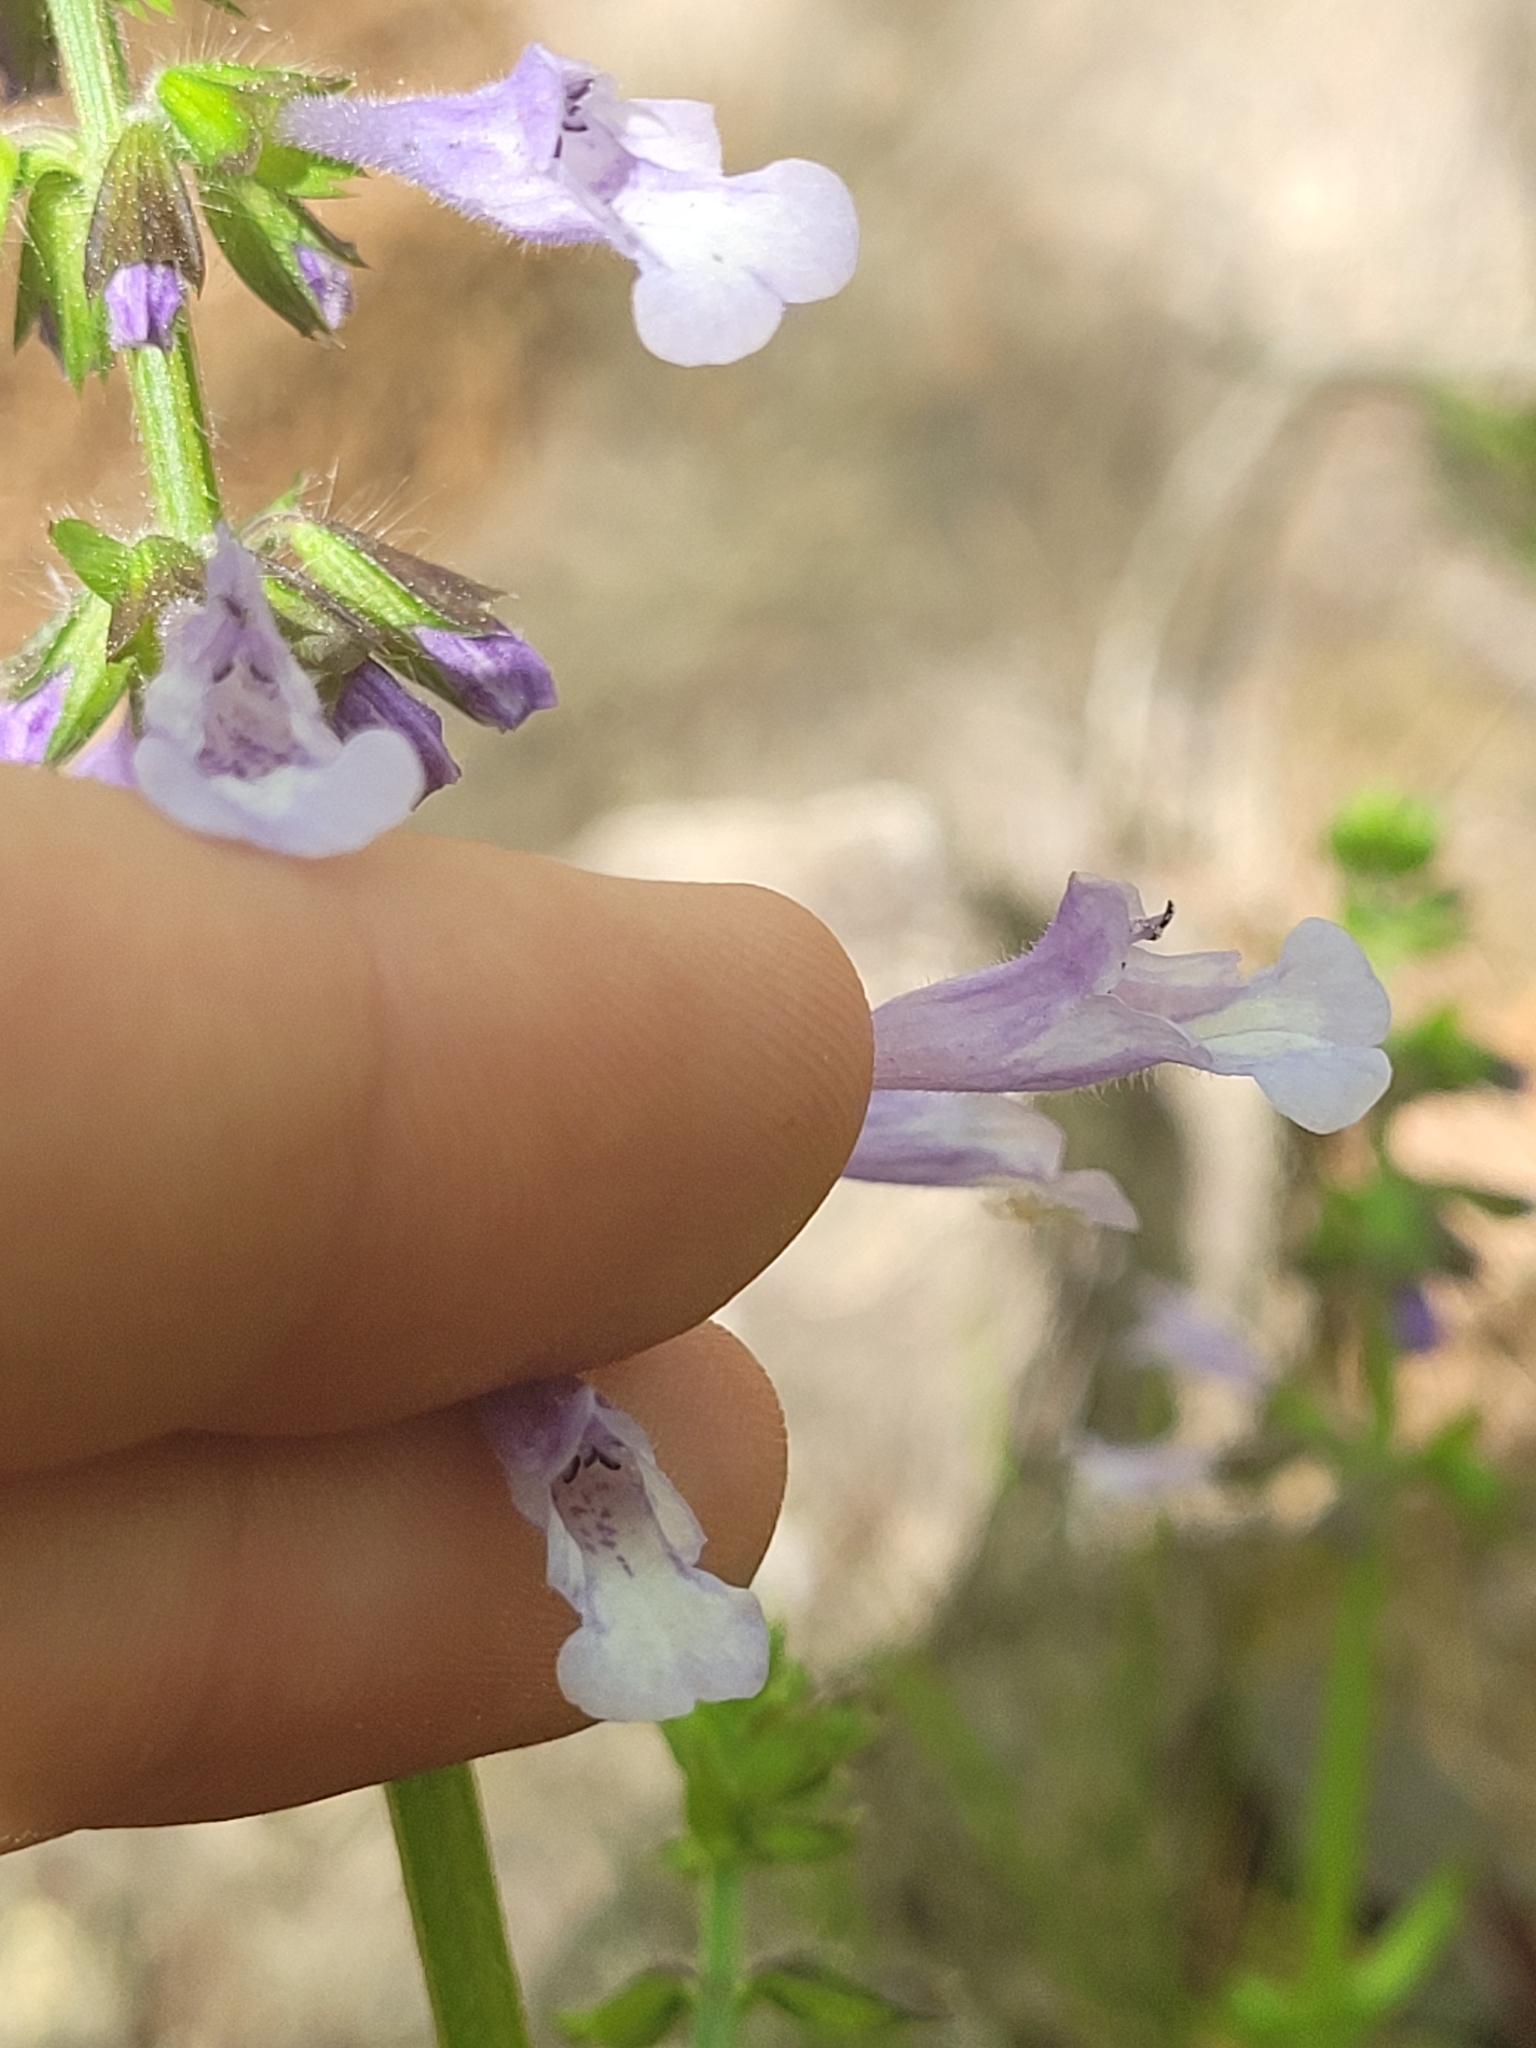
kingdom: Plantae
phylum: Tracheophyta
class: Magnoliopsida
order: Lamiales
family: Lamiaceae
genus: Salvia
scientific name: Salvia lyrata
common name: Cancerweed
